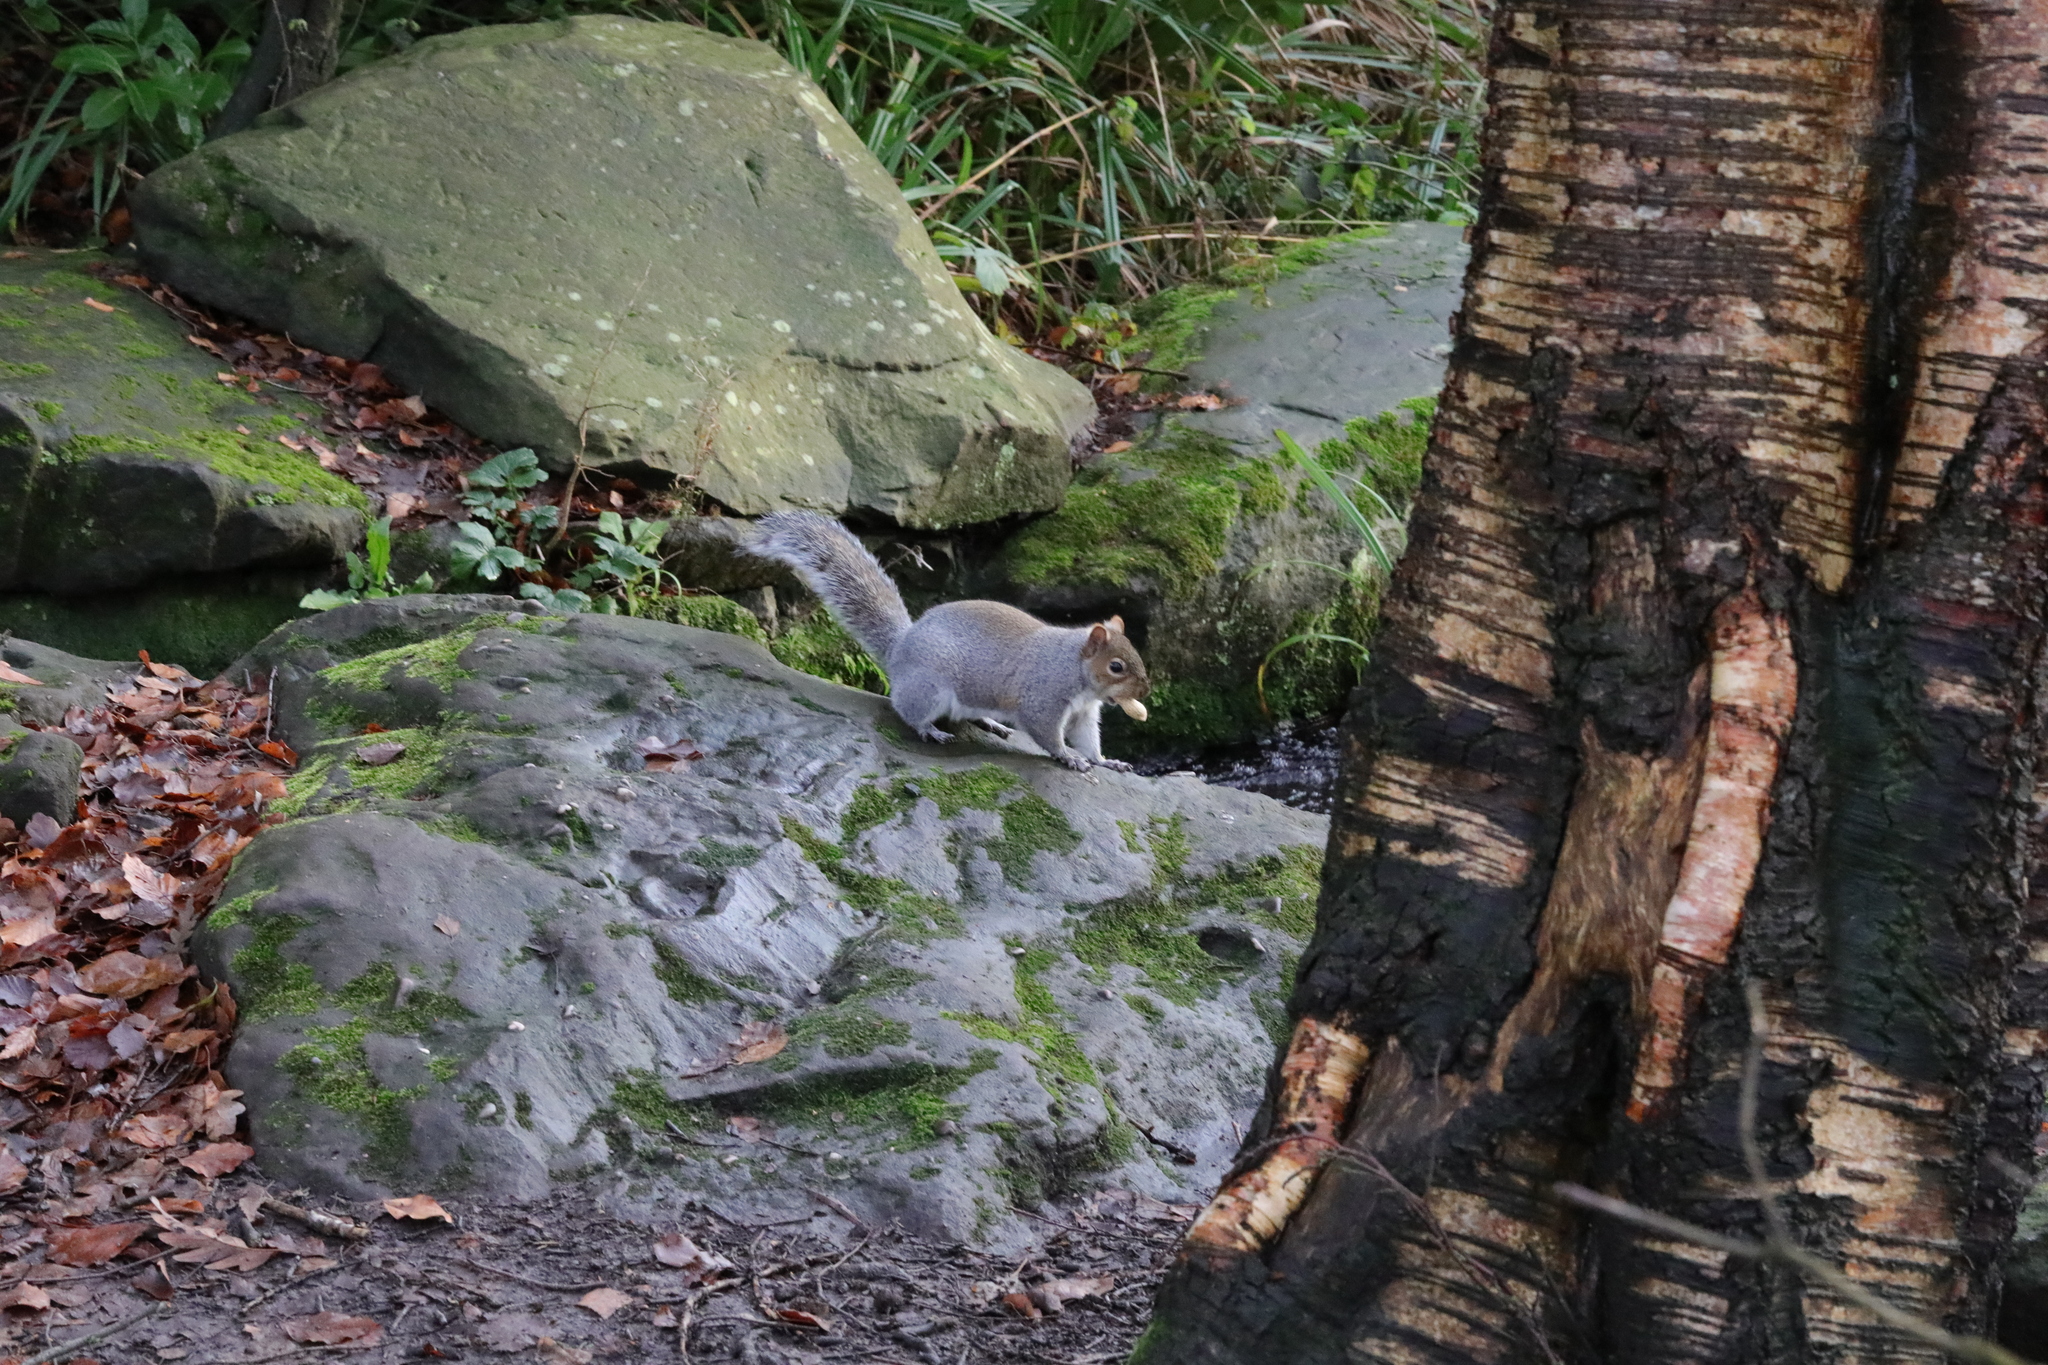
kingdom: Animalia
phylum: Chordata
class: Mammalia
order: Rodentia
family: Sciuridae
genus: Sciurus
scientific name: Sciurus carolinensis
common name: Eastern gray squirrel
